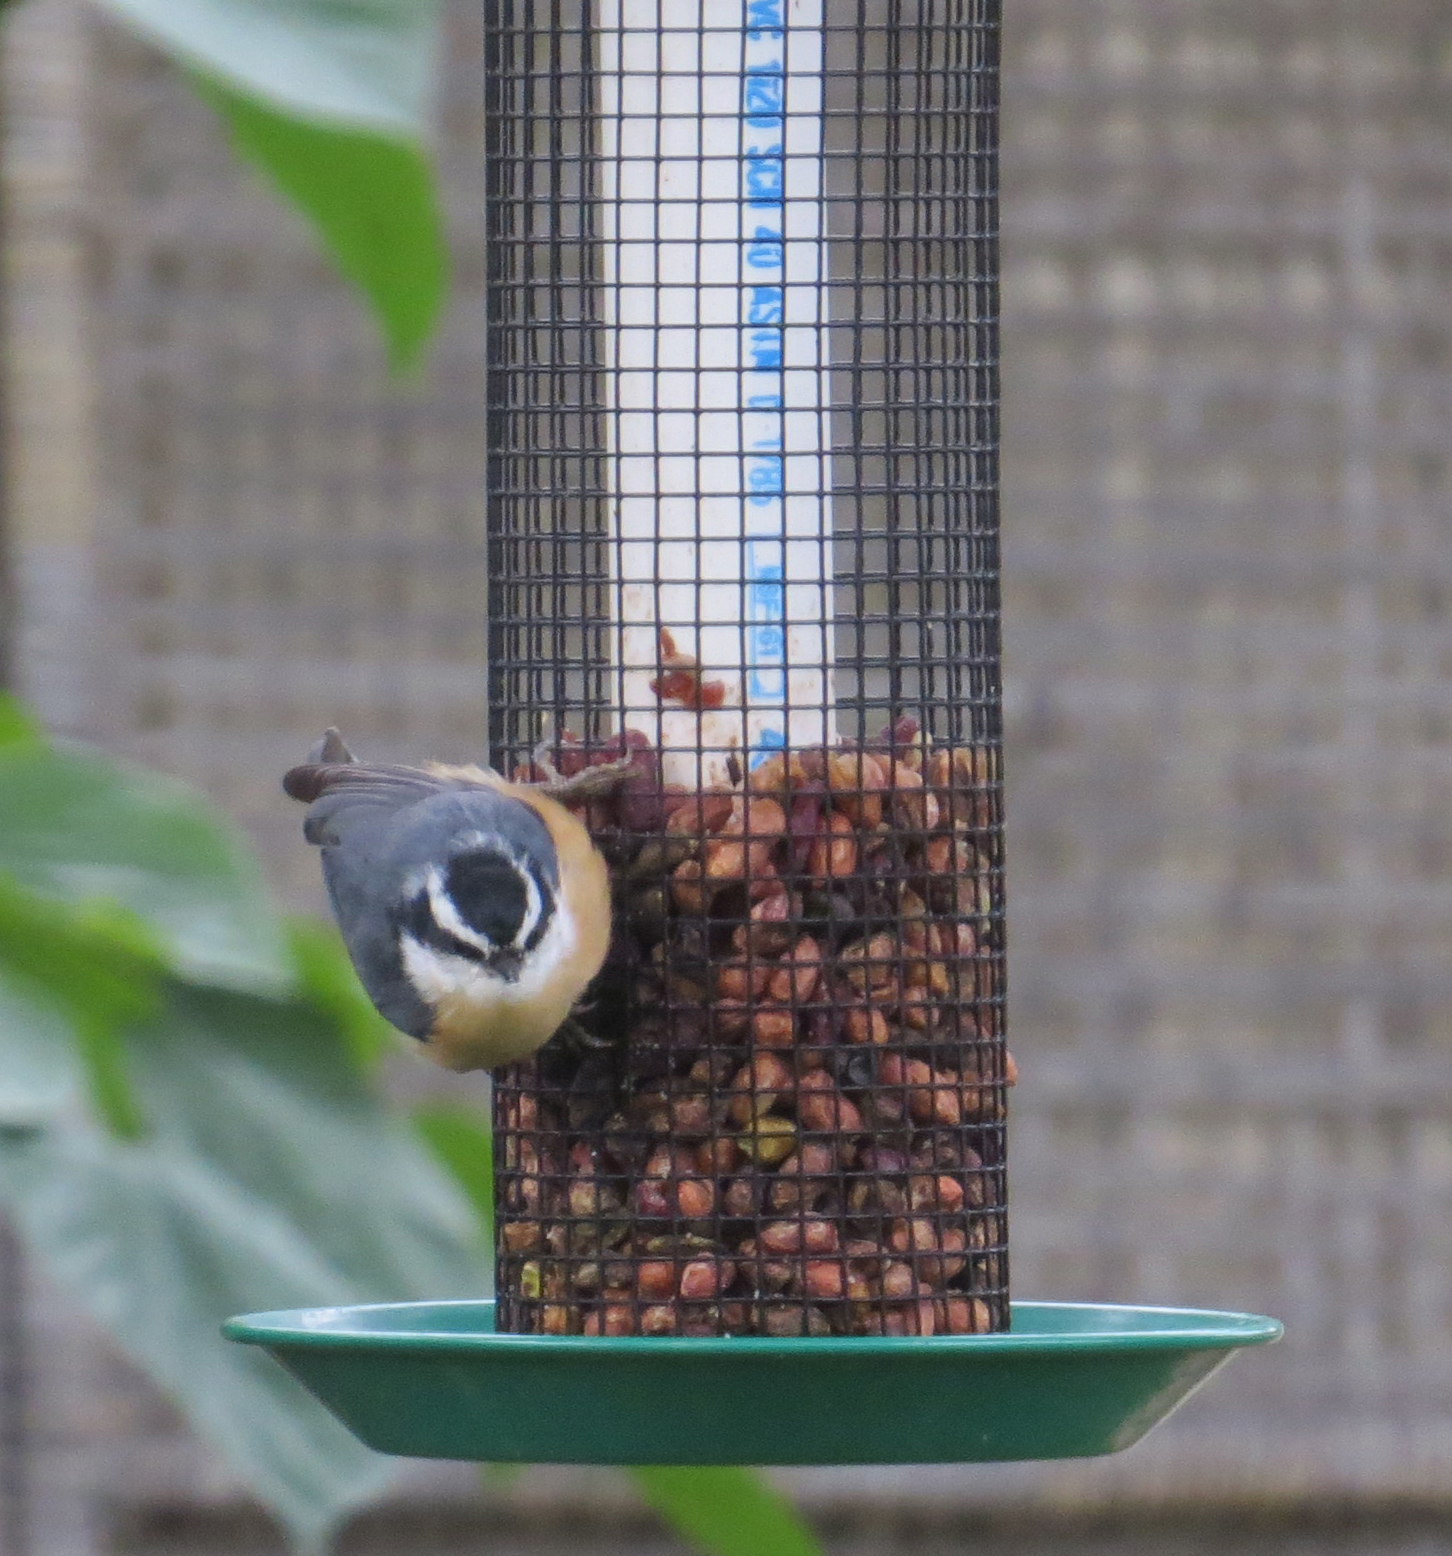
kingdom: Animalia
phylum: Chordata
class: Aves
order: Passeriformes
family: Sittidae
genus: Sitta
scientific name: Sitta canadensis
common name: Red-breasted nuthatch
